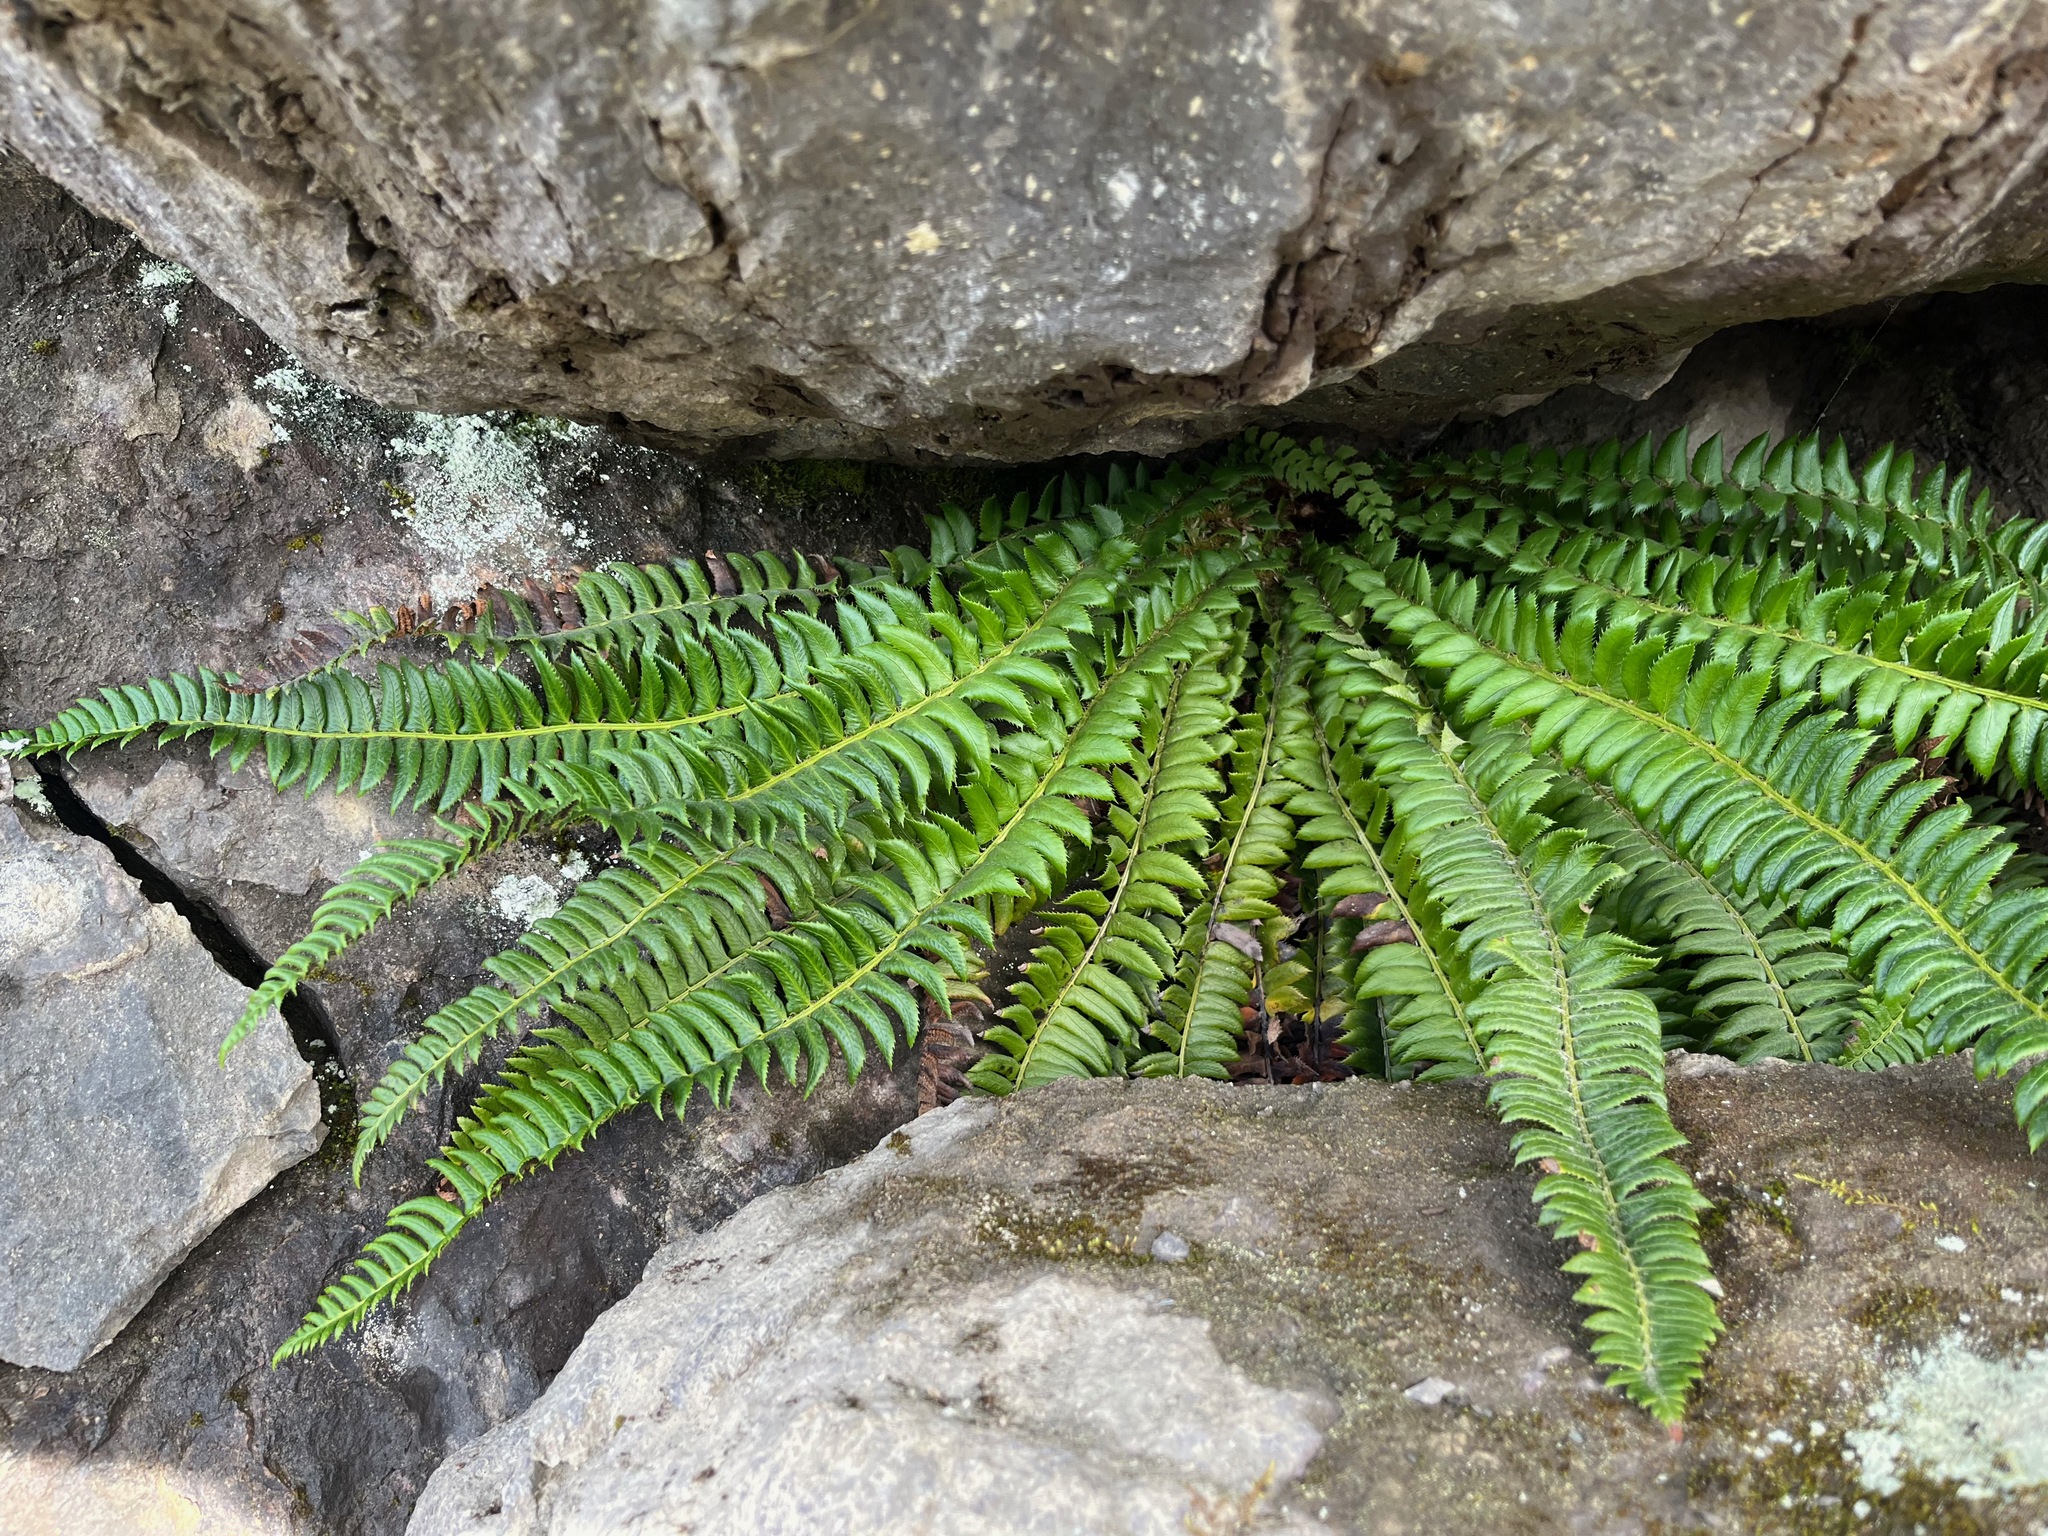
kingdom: Plantae
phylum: Tracheophyta
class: Polypodiopsida
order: Polypodiales
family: Dryopteridaceae
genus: Polystichum
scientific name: Polystichum lonchitis
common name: Holly fern
